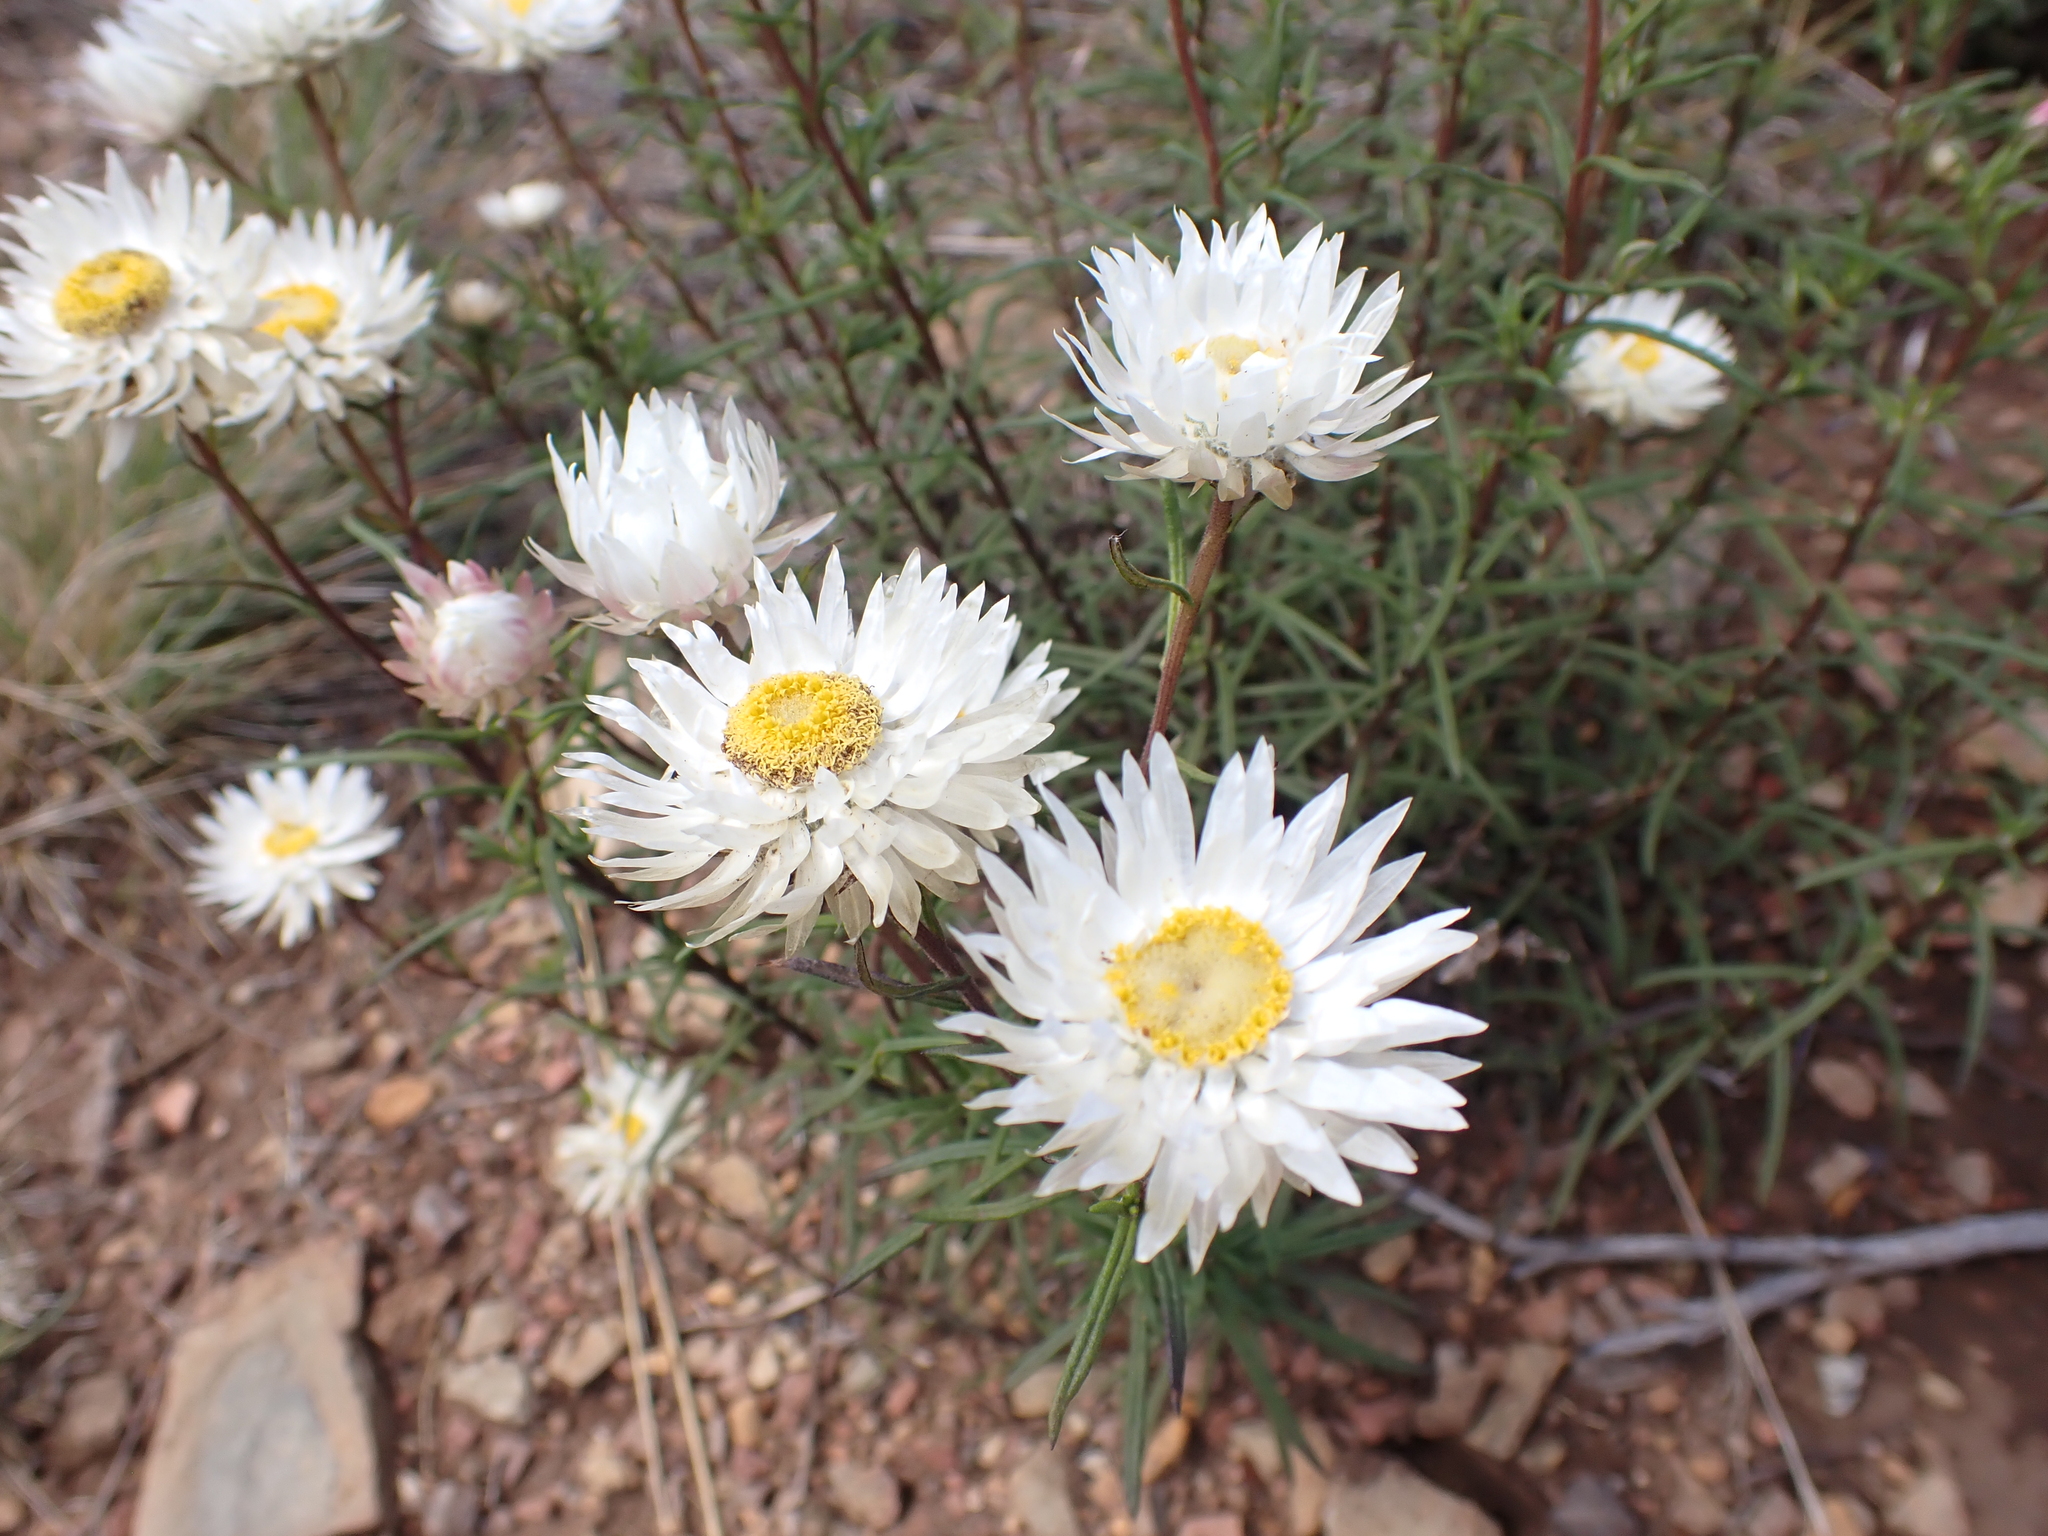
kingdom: Plantae
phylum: Tracheophyta
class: Magnoliopsida
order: Asterales
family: Asteraceae
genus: Coronidium
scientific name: Coronidium waddelliae
